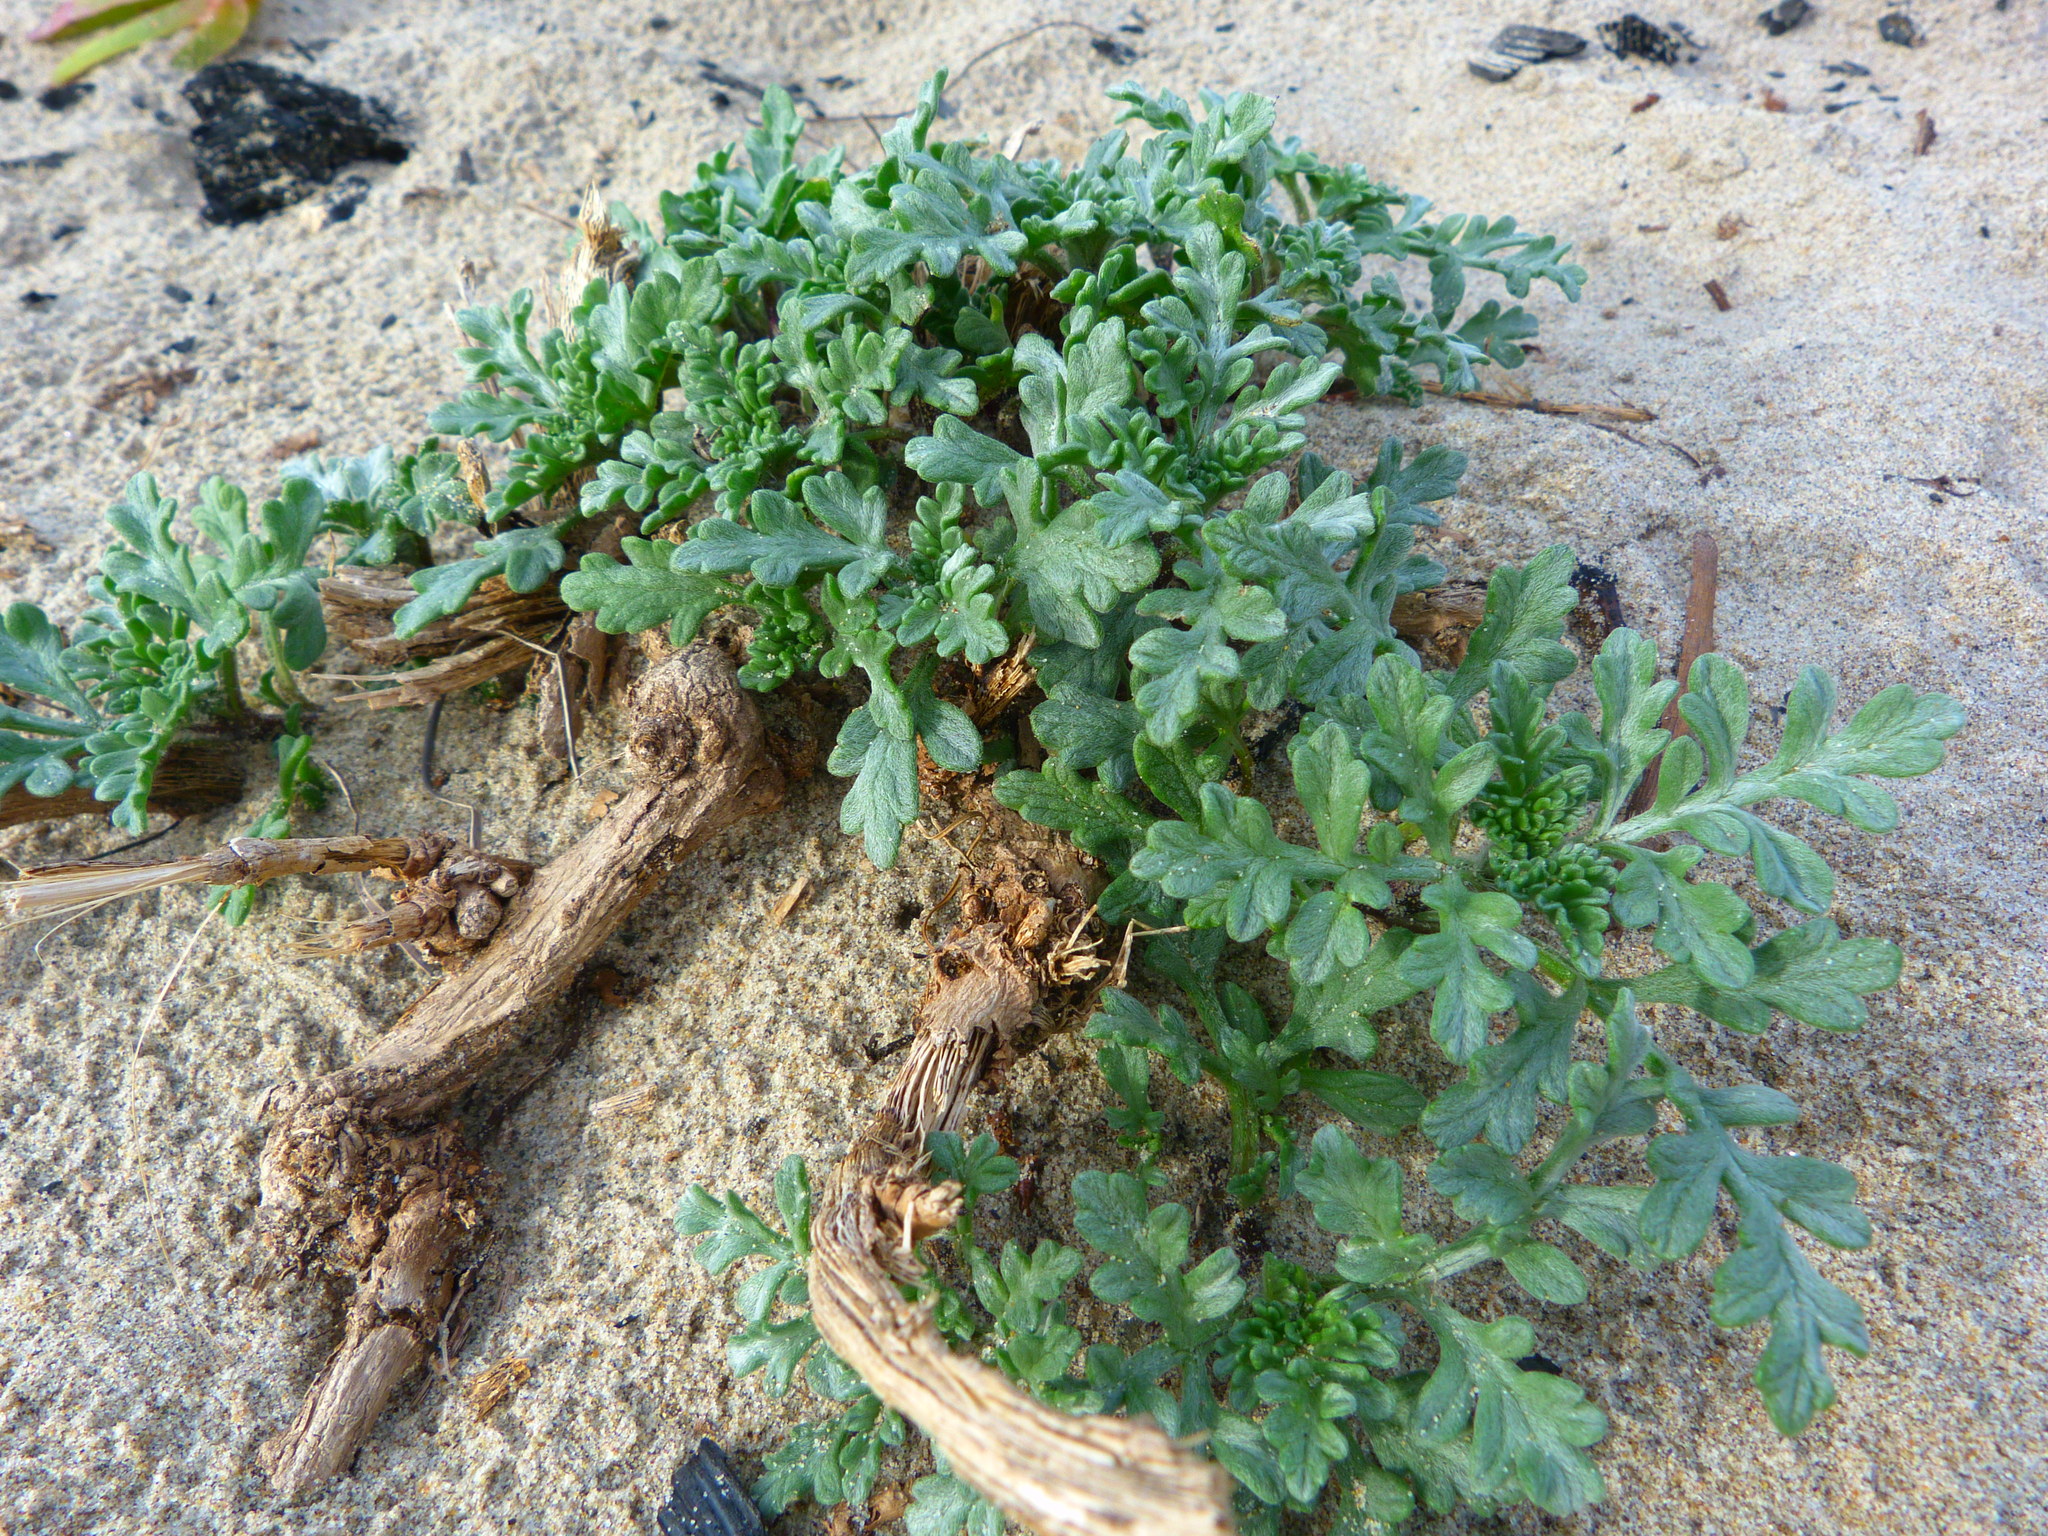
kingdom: Plantae
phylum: Tracheophyta
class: Magnoliopsida
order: Asterales
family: Asteraceae
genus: Ambrosia
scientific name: Ambrosia chamissonis
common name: Beachbur
